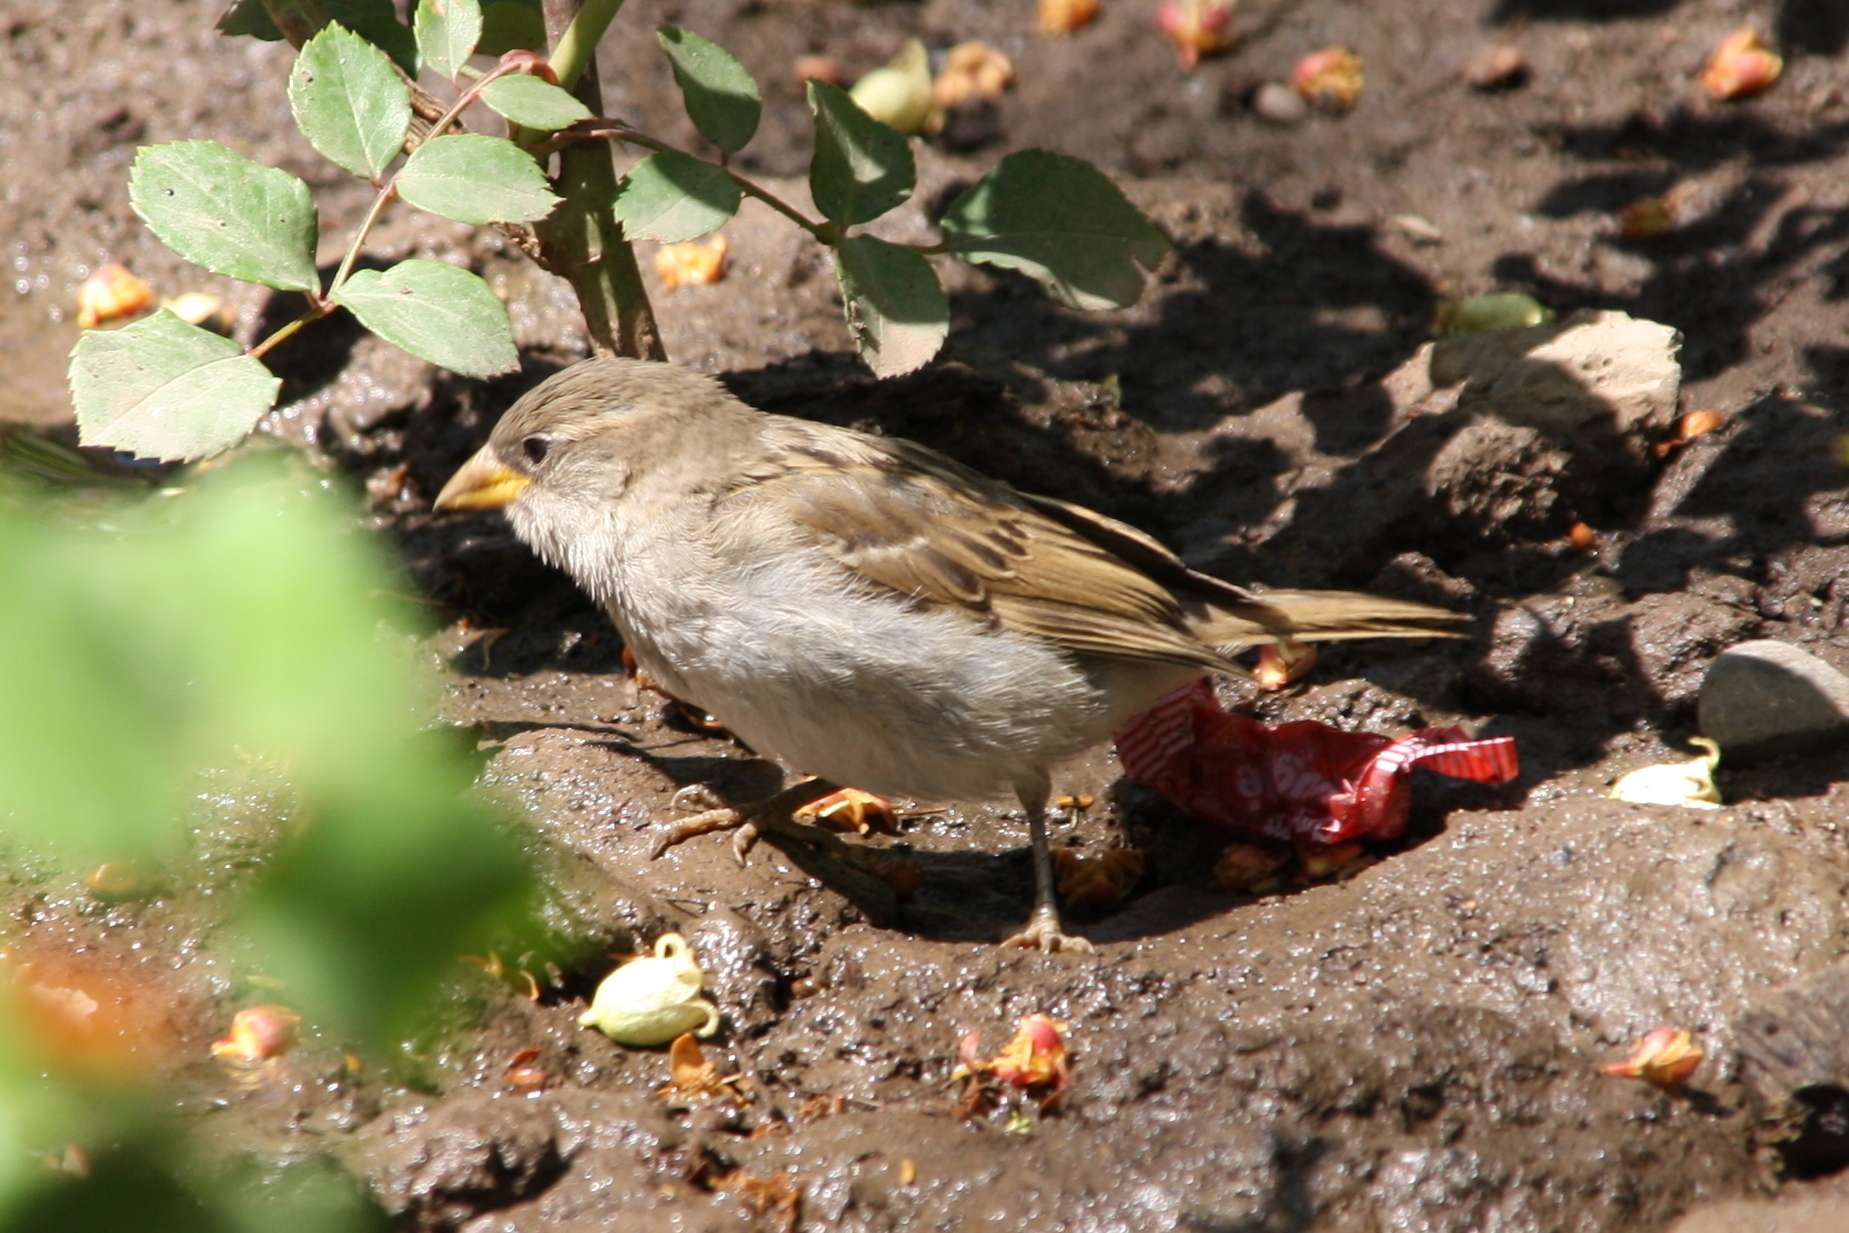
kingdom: Animalia
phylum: Chordata
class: Aves
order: Passeriformes
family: Passeridae
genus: Passer
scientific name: Passer domesticus
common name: House sparrow
